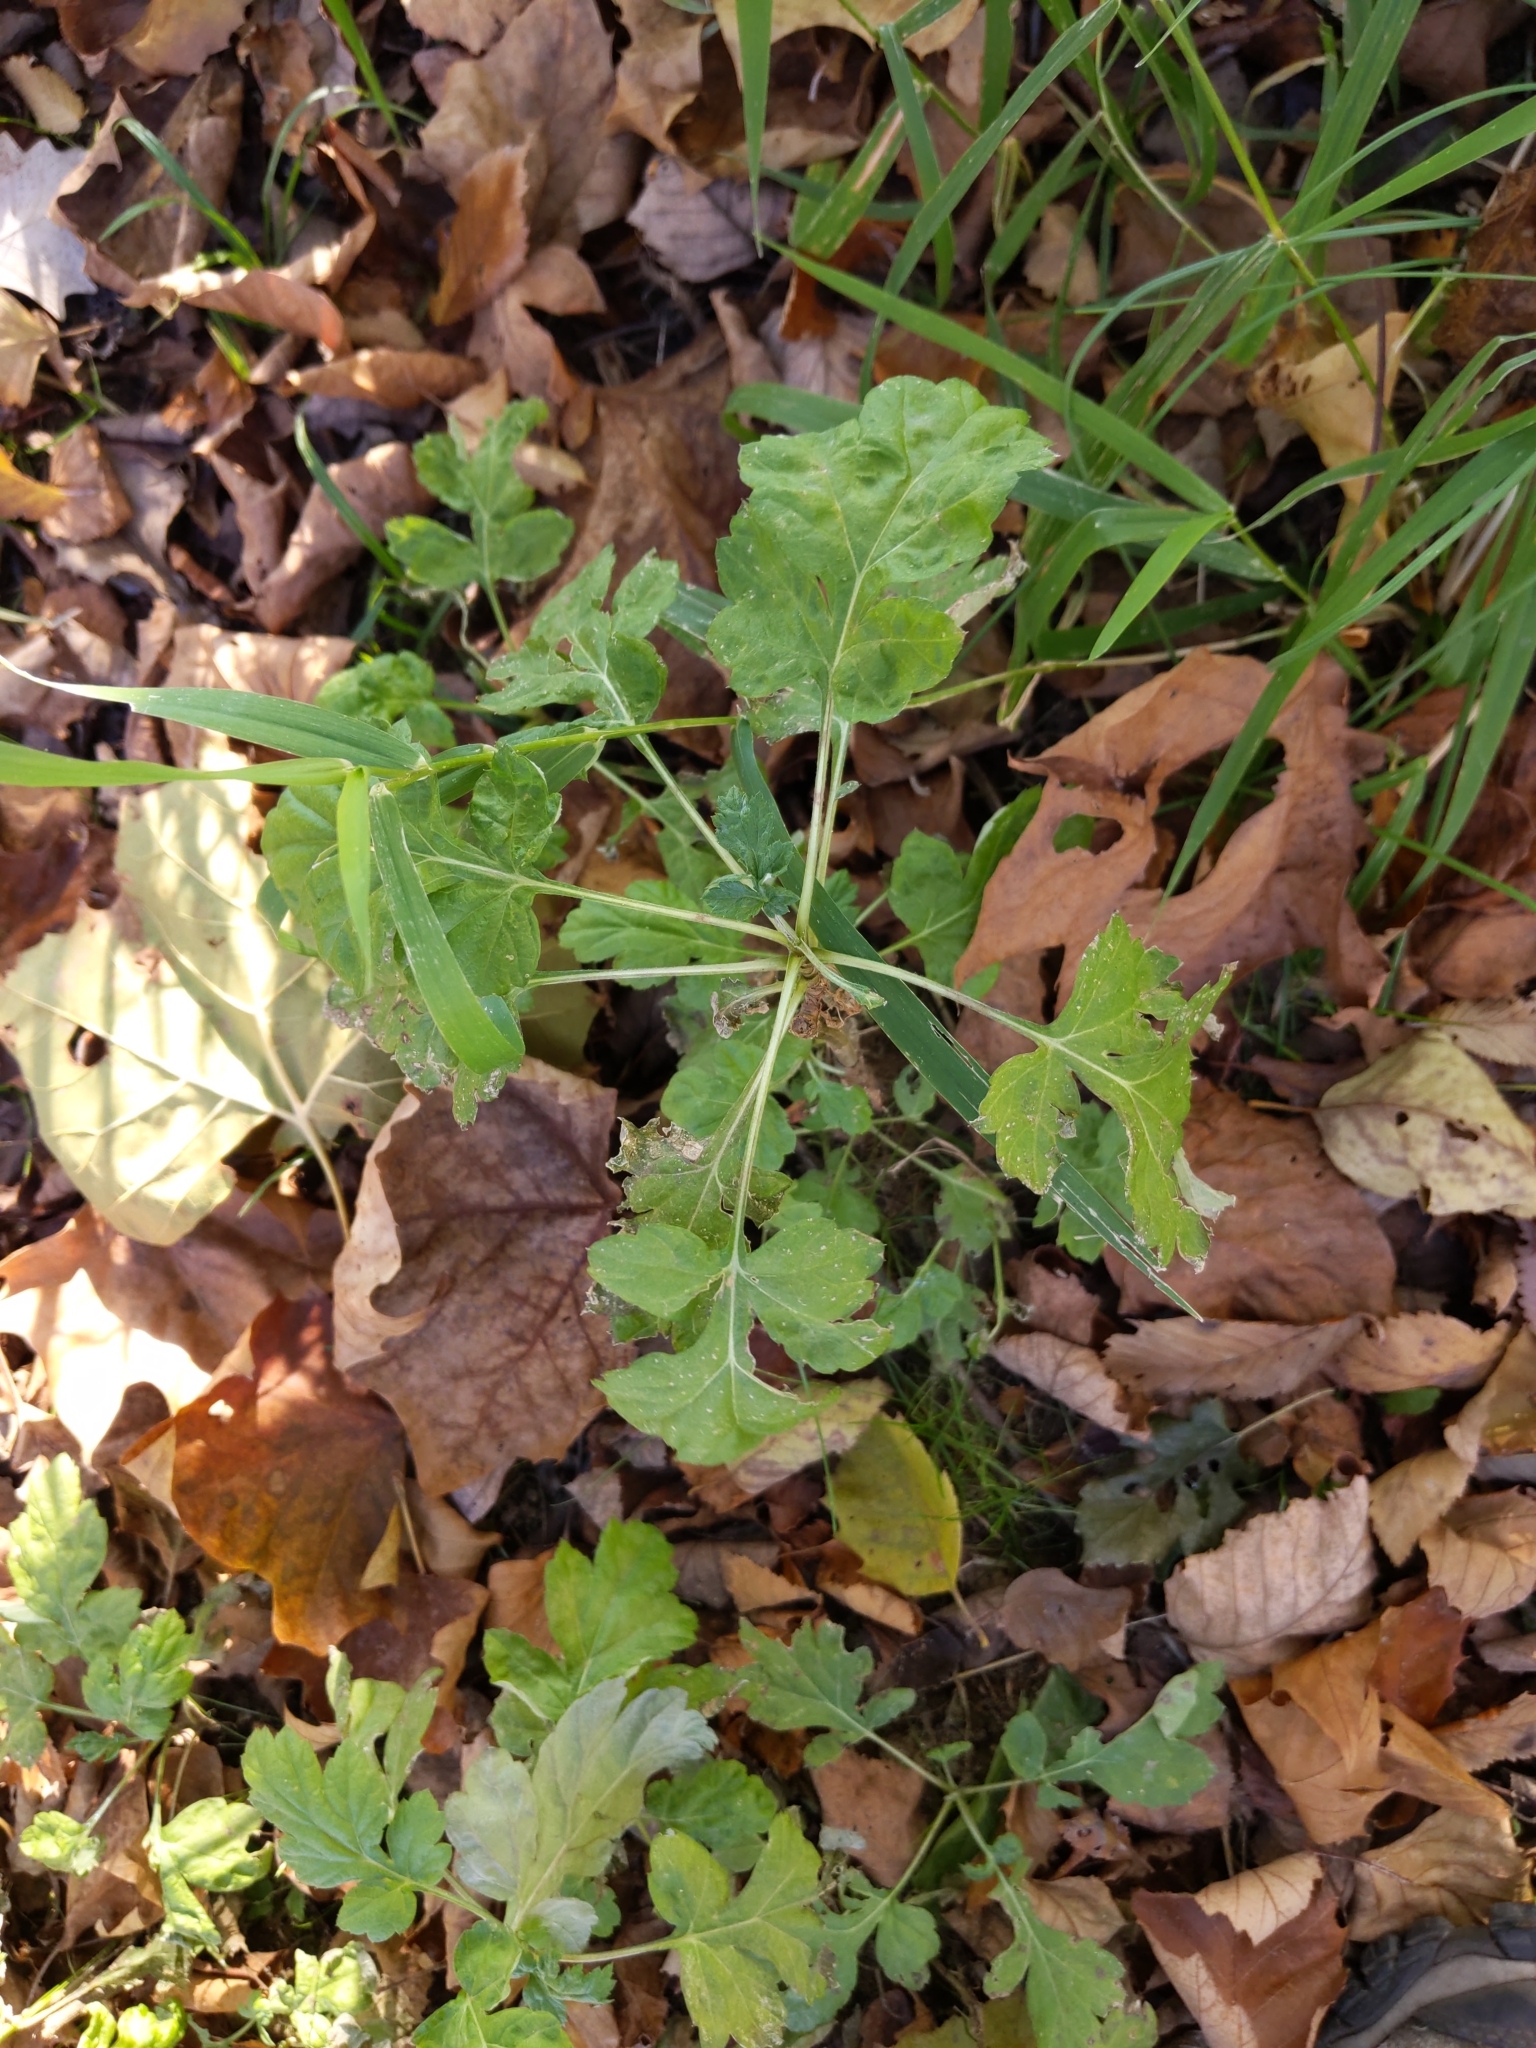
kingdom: Plantae
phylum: Tracheophyta
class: Magnoliopsida
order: Asterales
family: Asteraceae
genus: Artemisia
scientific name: Artemisia vulgaris
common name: Mugwort
